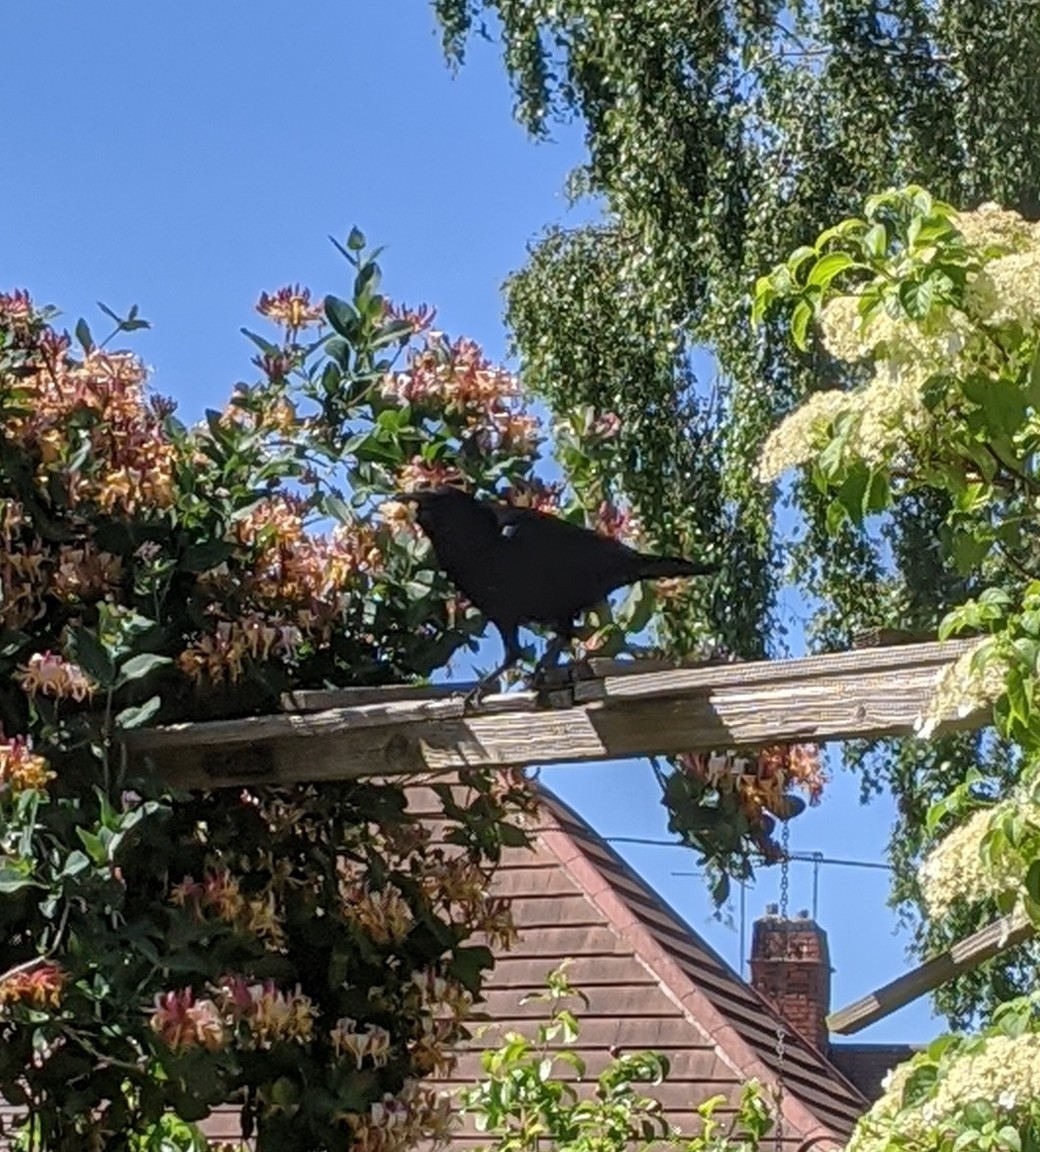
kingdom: Animalia
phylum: Chordata
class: Aves
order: Passeriformes
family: Corvidae
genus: Corvus
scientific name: Corvus corone
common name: Carrion crow
